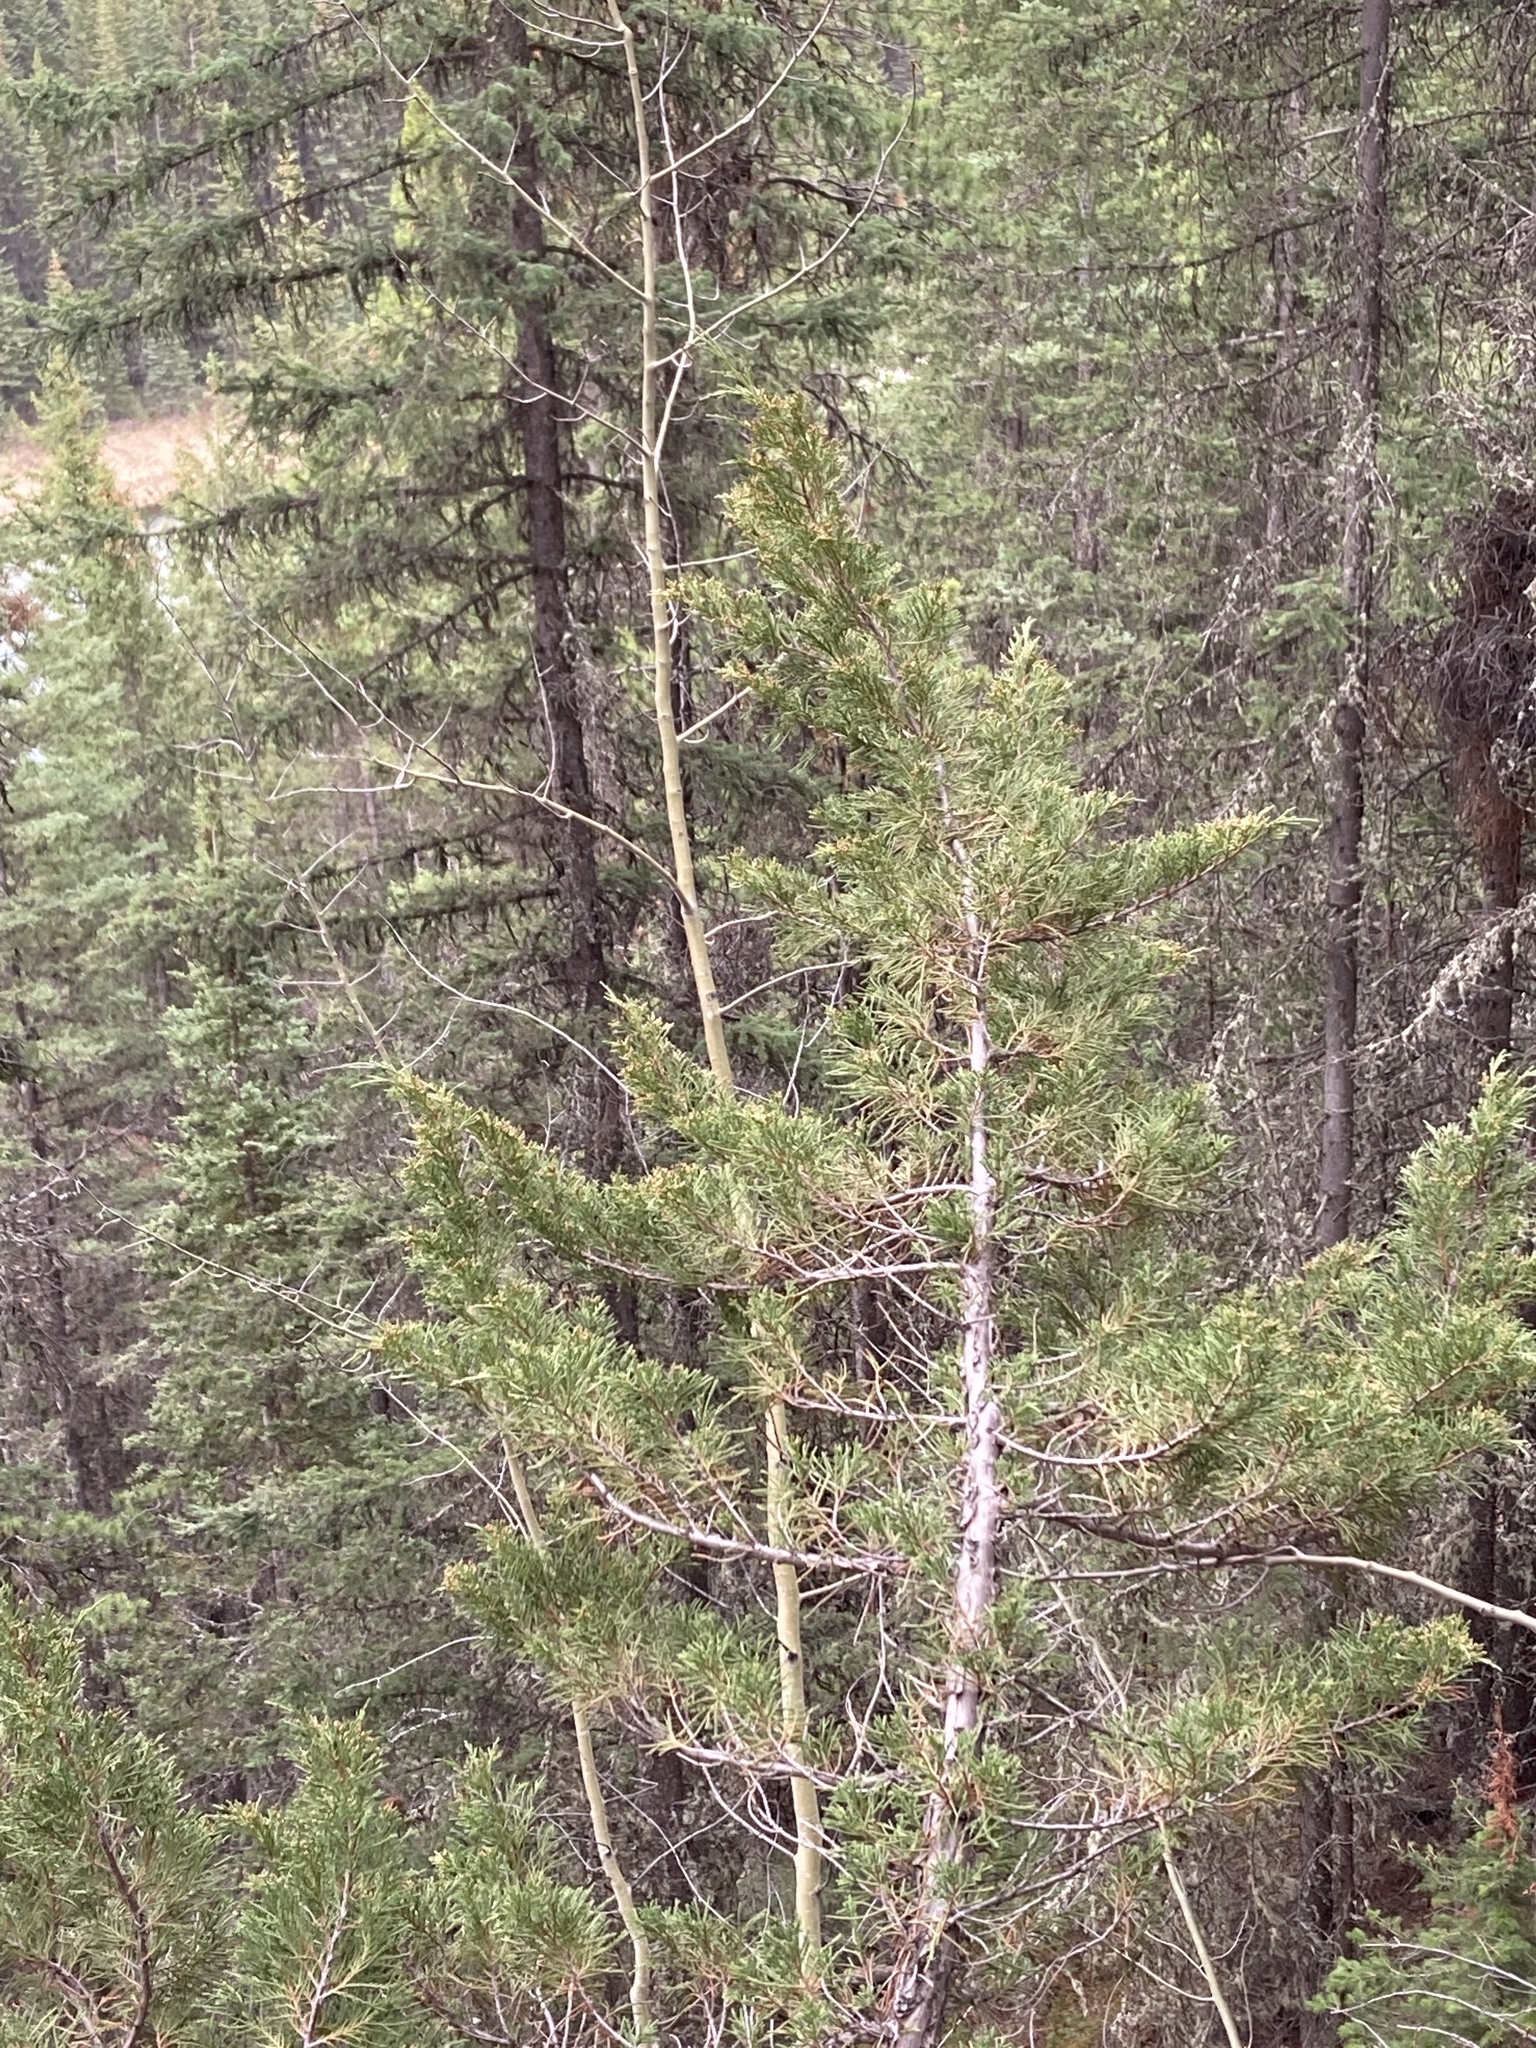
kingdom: Plantae
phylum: Tracheophyta
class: Pinopsida
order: Pinales
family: Cupressaceae
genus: Juniperus
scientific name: Juniperus scopulorum
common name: Rocky mountain juniper
